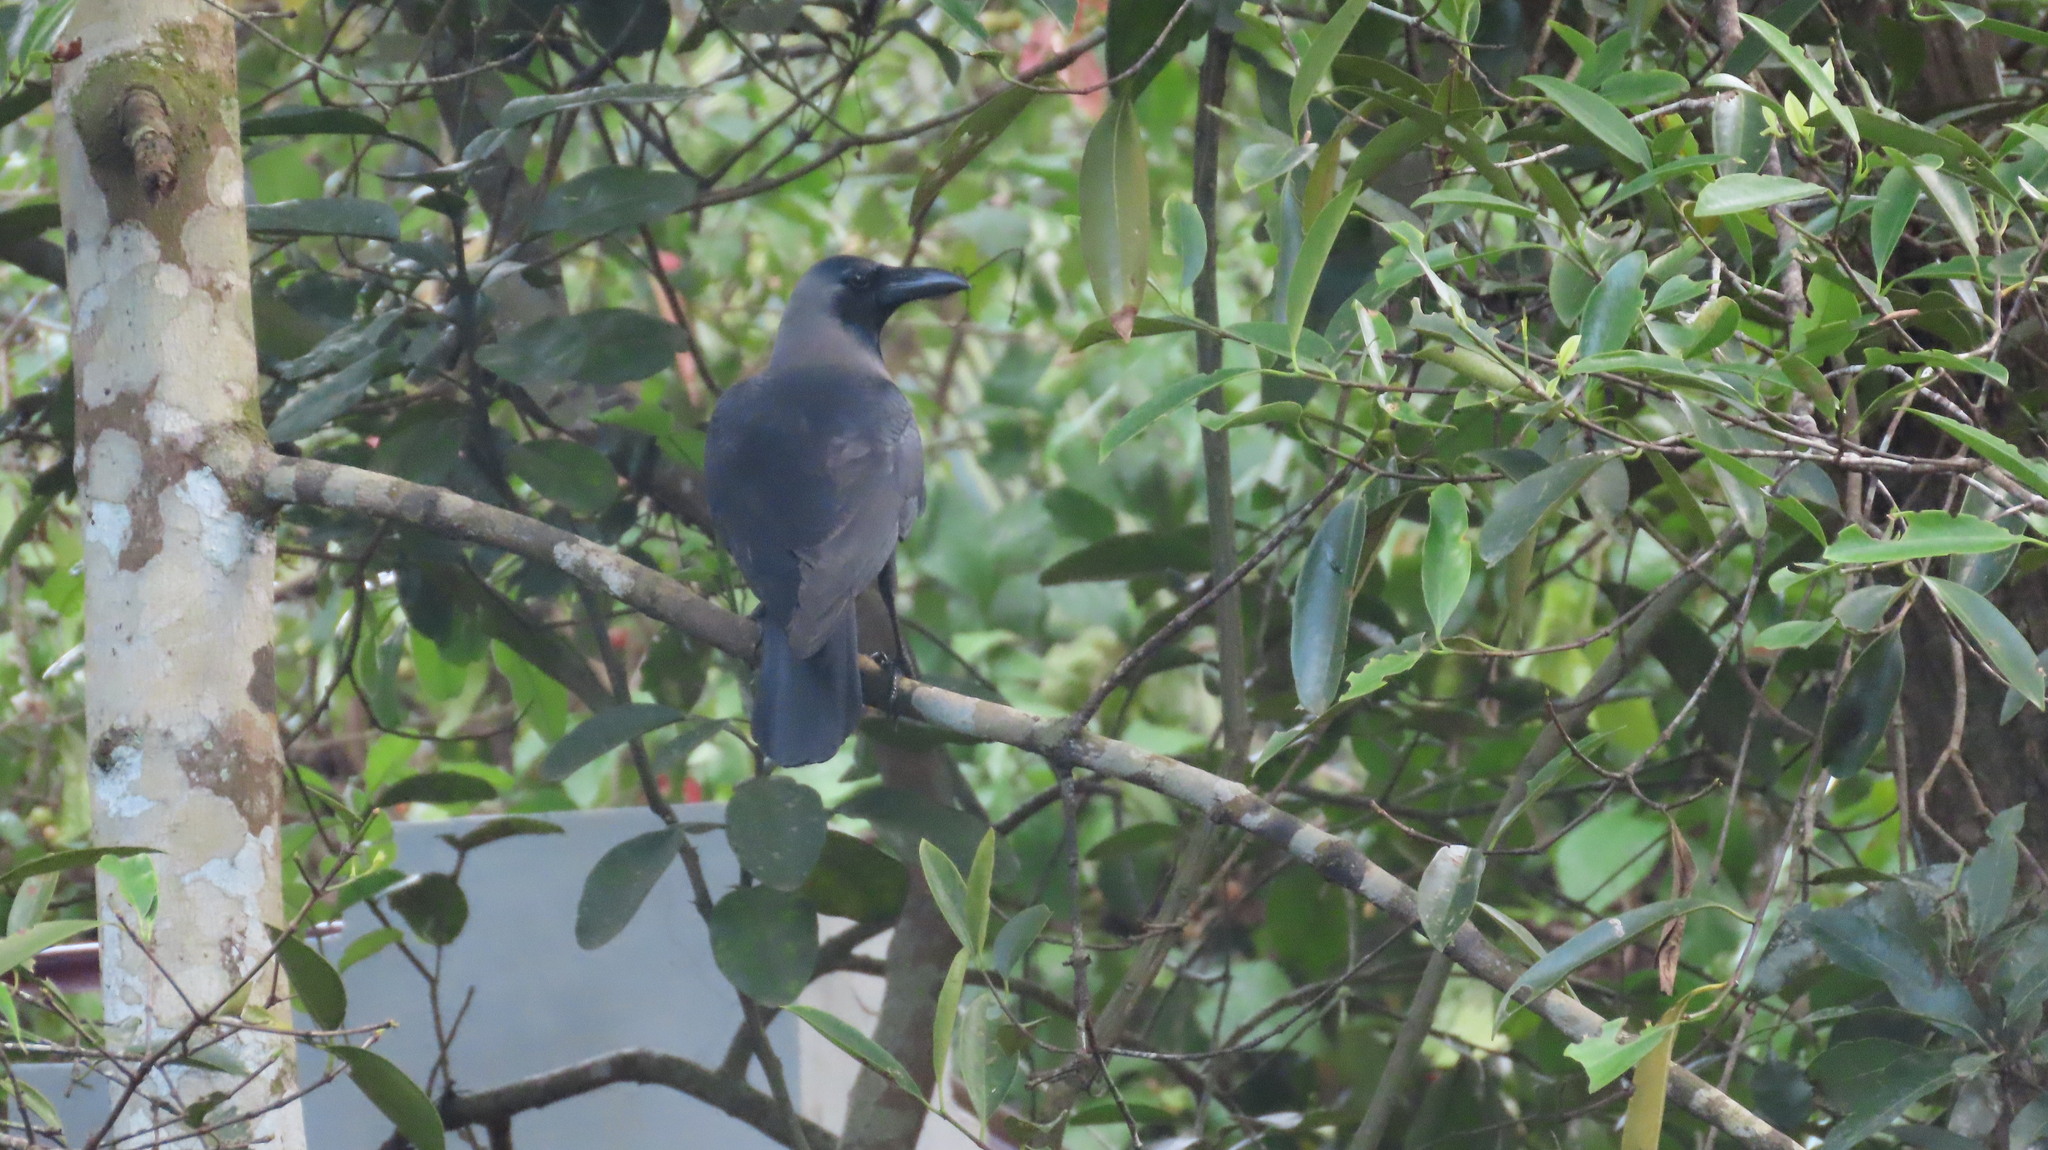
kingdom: Animalia
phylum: Chordata
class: Aves
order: Passeriformes
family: Corvidae
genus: Corvus
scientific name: Corvus splendens
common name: House crow
